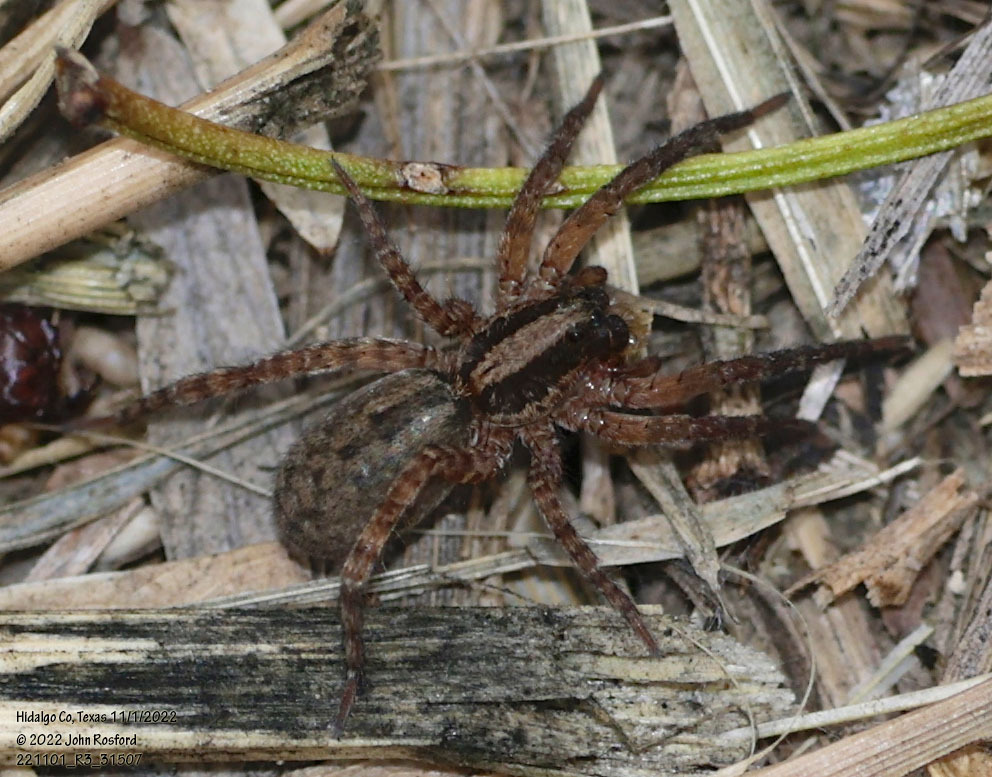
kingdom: Animalia
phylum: Arthropoda
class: Arachnida
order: Araneae
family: Lycosidae
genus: Trochosa
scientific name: Trochosa sepulchralis
